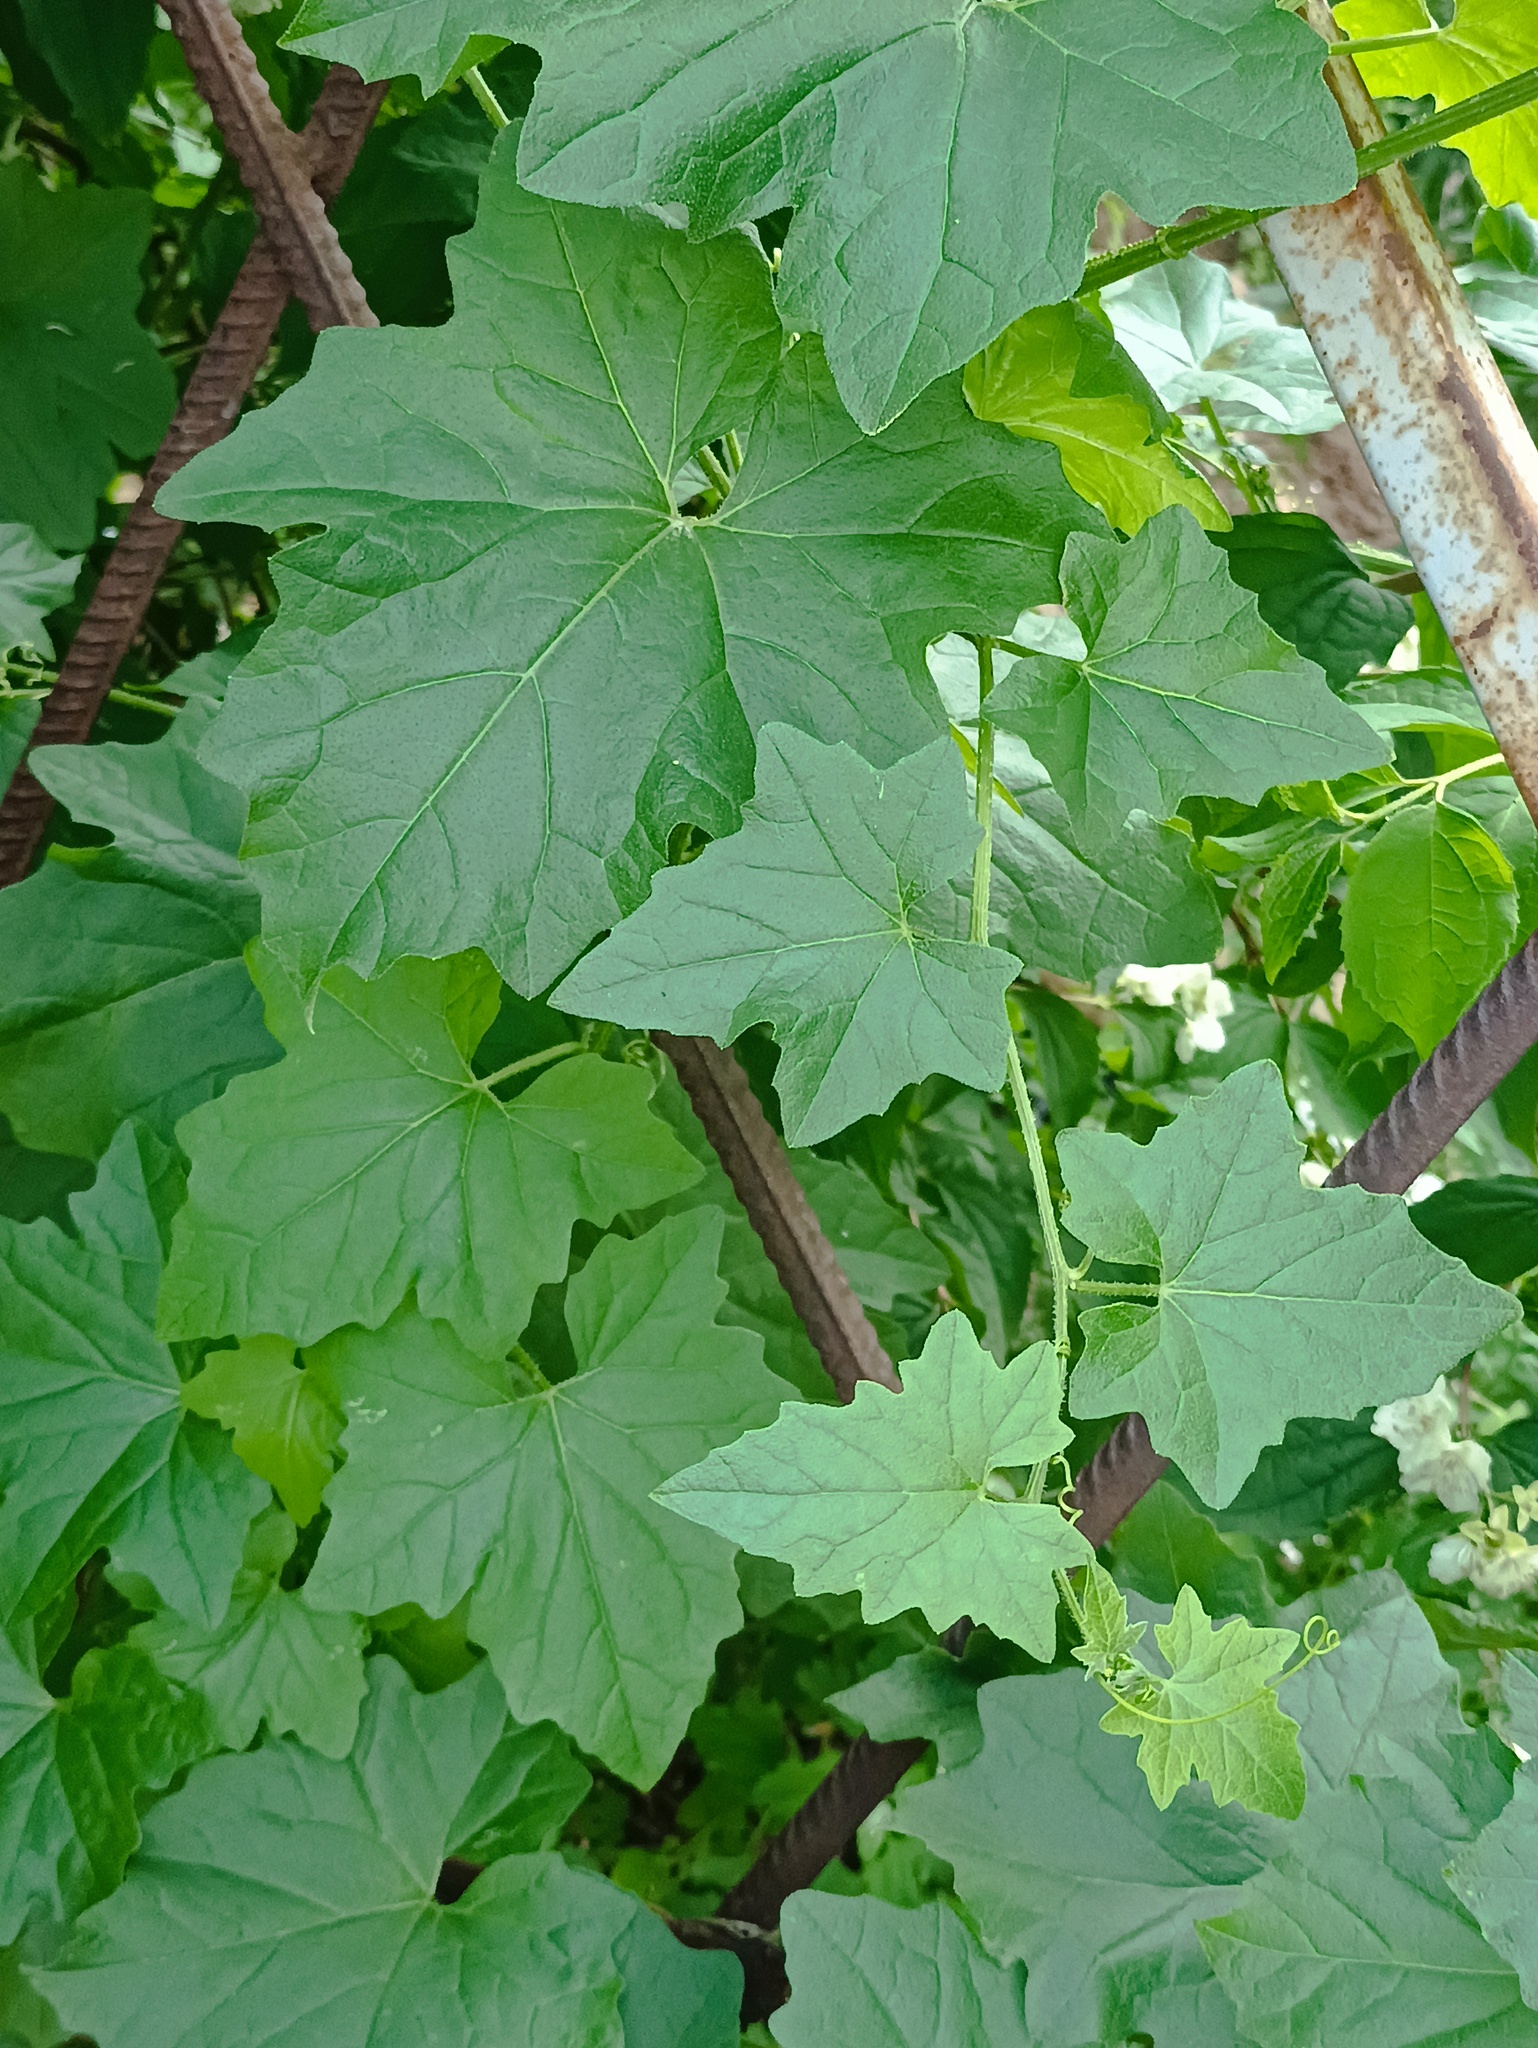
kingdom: Plantae
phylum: Tracheophyta
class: Magnoliopsida
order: Cucurbitales
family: Cucurbitaceae
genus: Bryonia
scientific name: Bryonia alba
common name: White bryony
